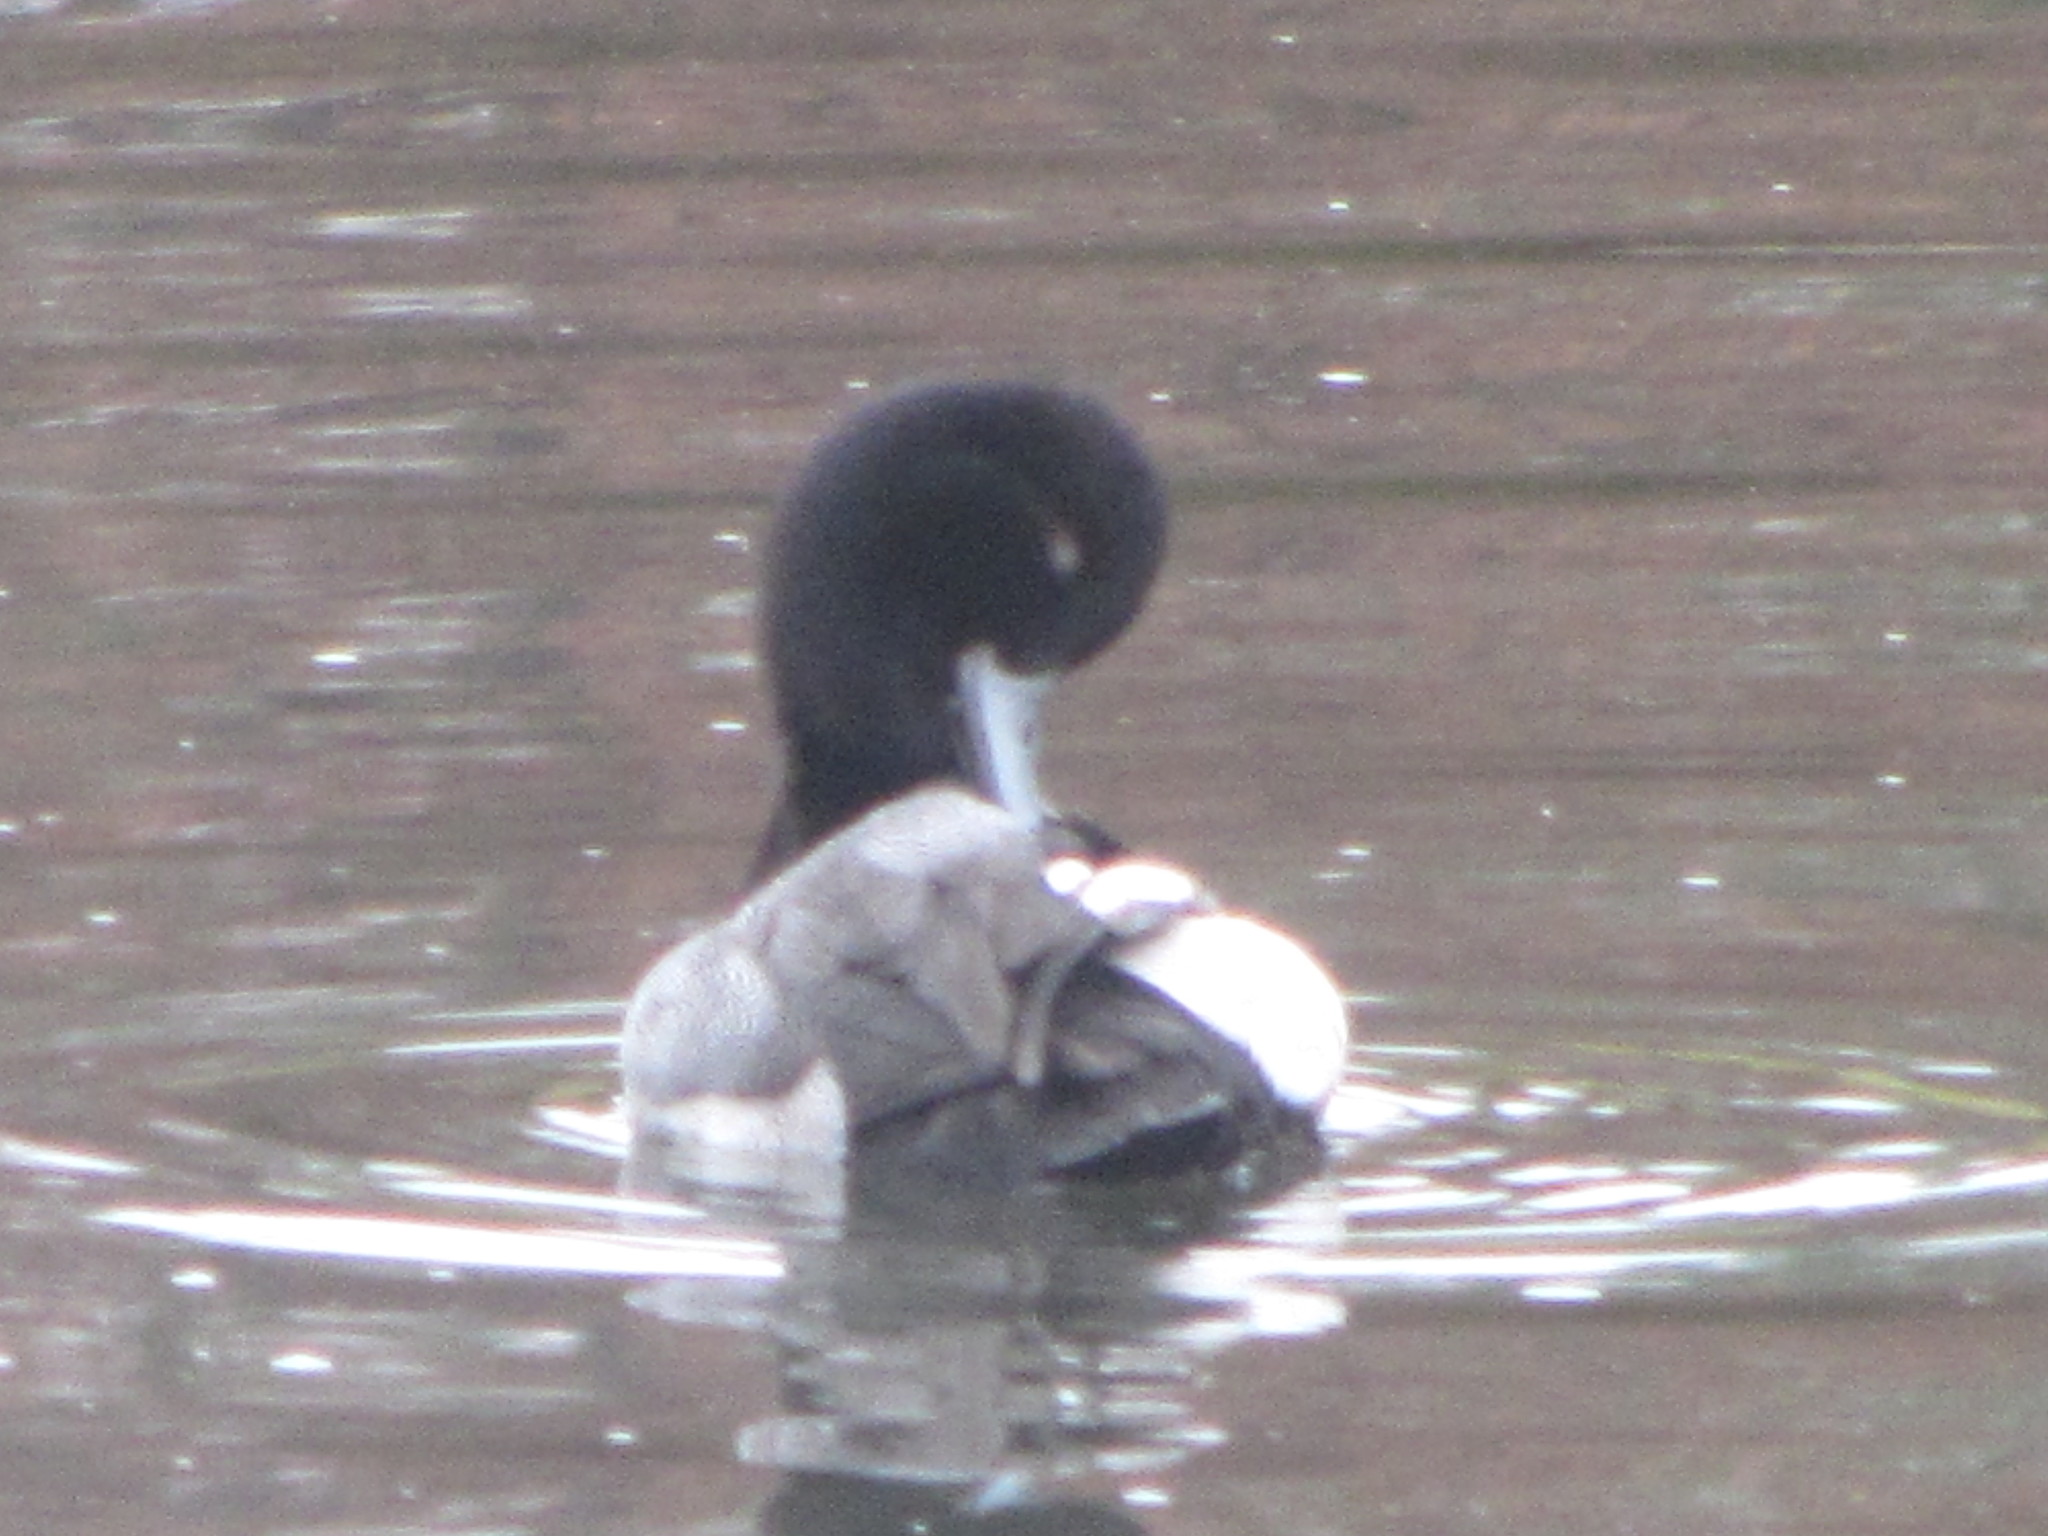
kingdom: Animalia
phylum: Chordata
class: Aves
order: Anseriformes
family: Anatidae
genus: Aythya
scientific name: Aythya
